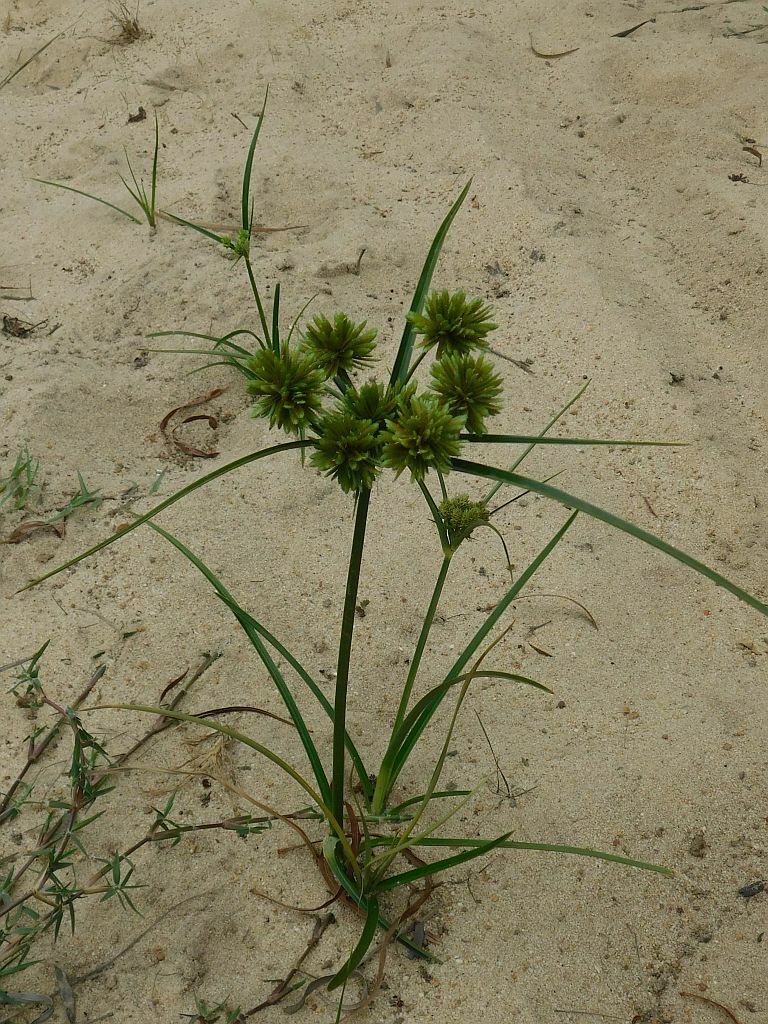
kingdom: Plantae
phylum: Tracheophyta
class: Liliopsida
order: Poales
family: Cyperaceae
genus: Cyperus
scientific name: Cyperus eragrostis
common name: Tall flatsedge
